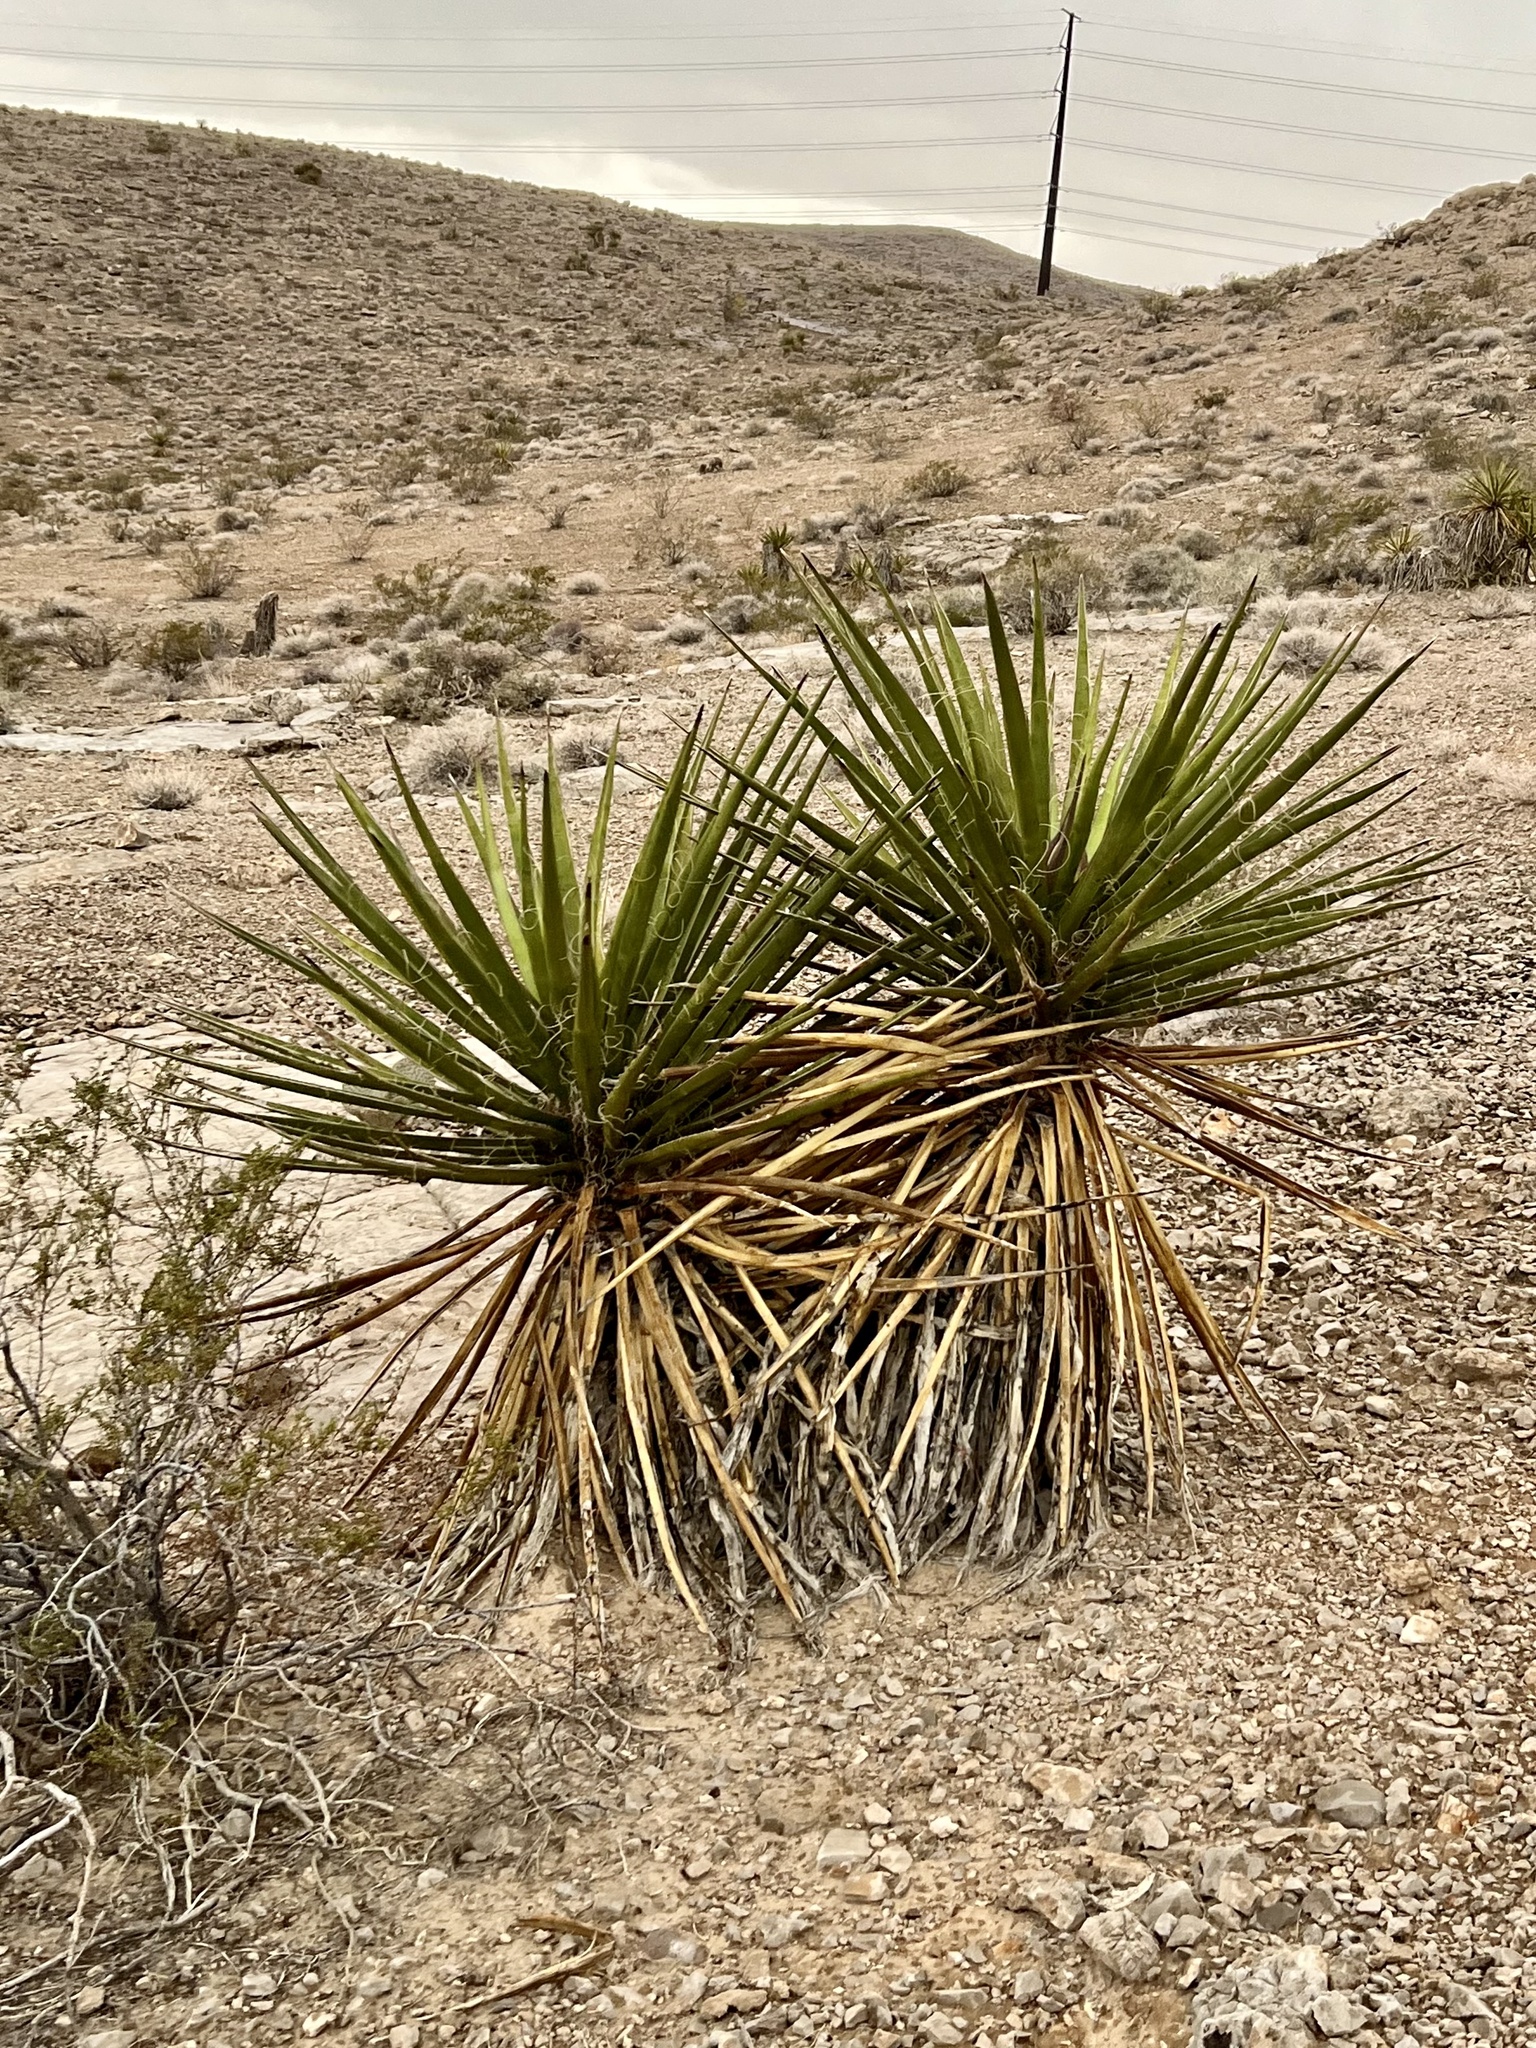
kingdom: Plantae
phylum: Tracheophyta
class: Liliopsida
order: Asparagales
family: Asparagaceae
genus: Yucca
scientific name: Yucca schidigera
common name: Mojave yucca
